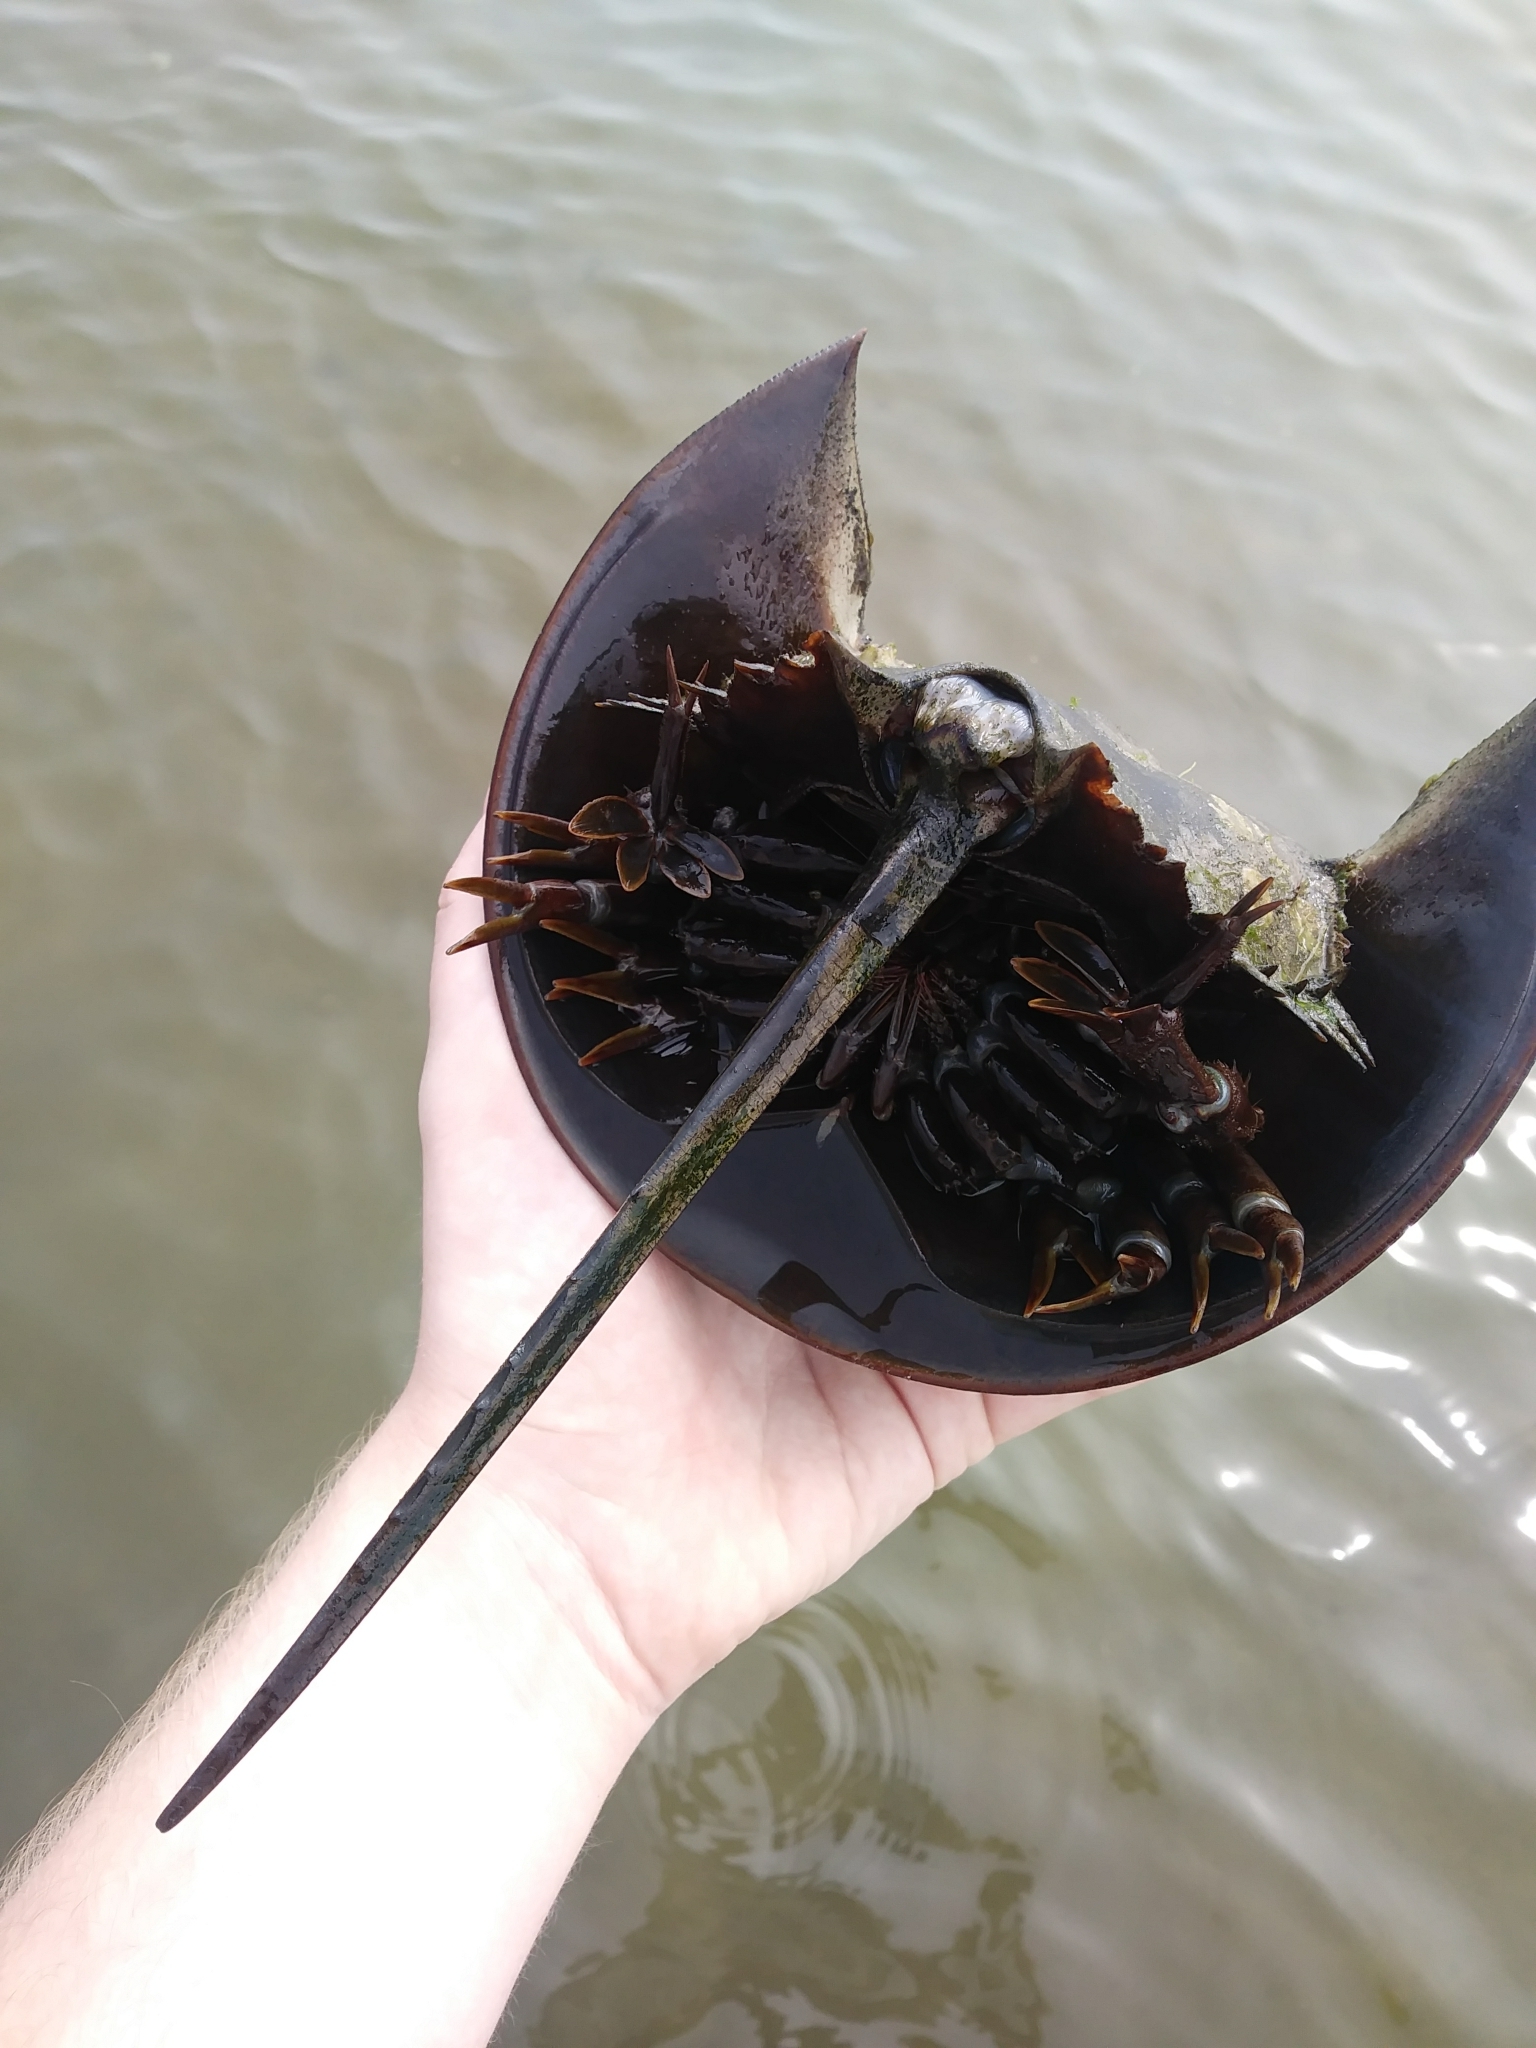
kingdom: Animalia
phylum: Arthropoda
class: Merostomata
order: Xiphosurida
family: Limulidae
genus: Limulus
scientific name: Limulus polyphemus
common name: Horseshoe crab
